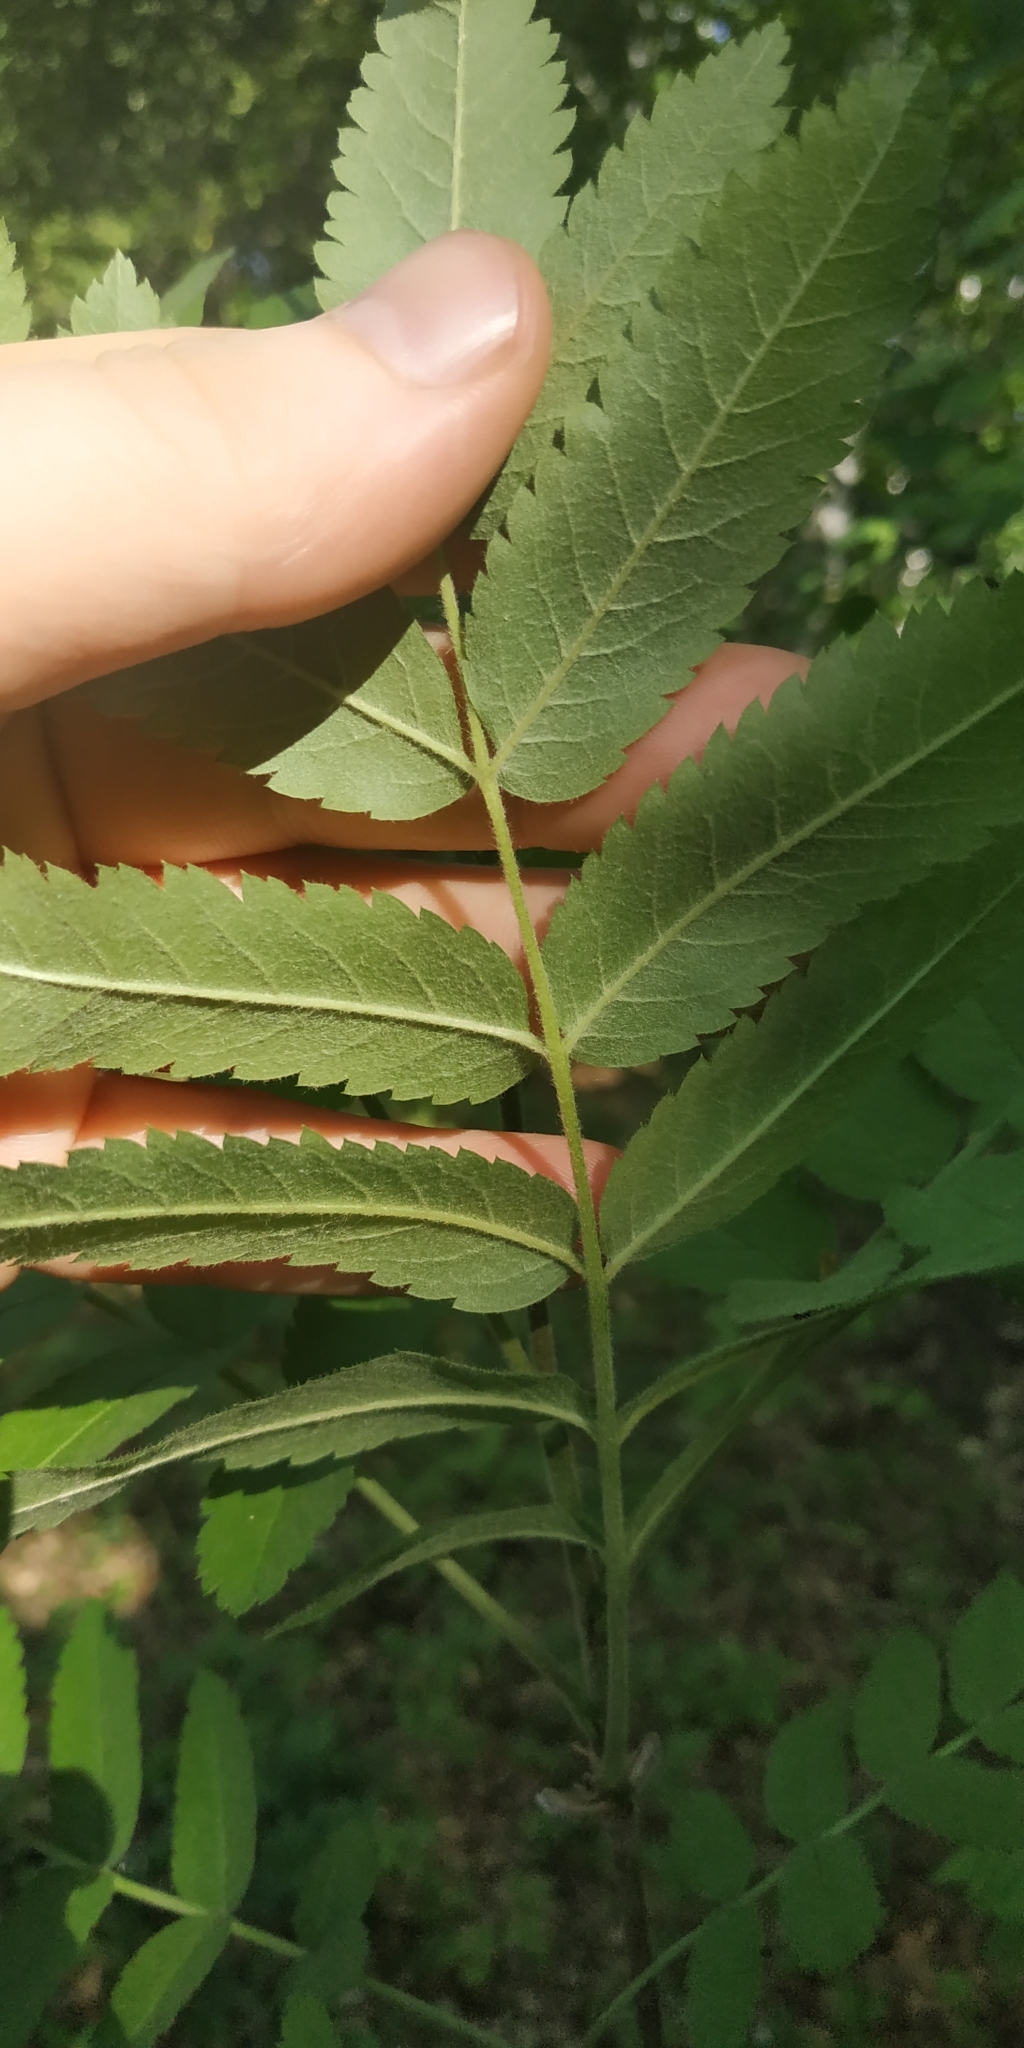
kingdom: Plantae
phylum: Tracheophyta
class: Magnoliopsida
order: Rosales
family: Rosaceae
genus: Sorbus
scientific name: Sorbus aucuparia
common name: Rowan
